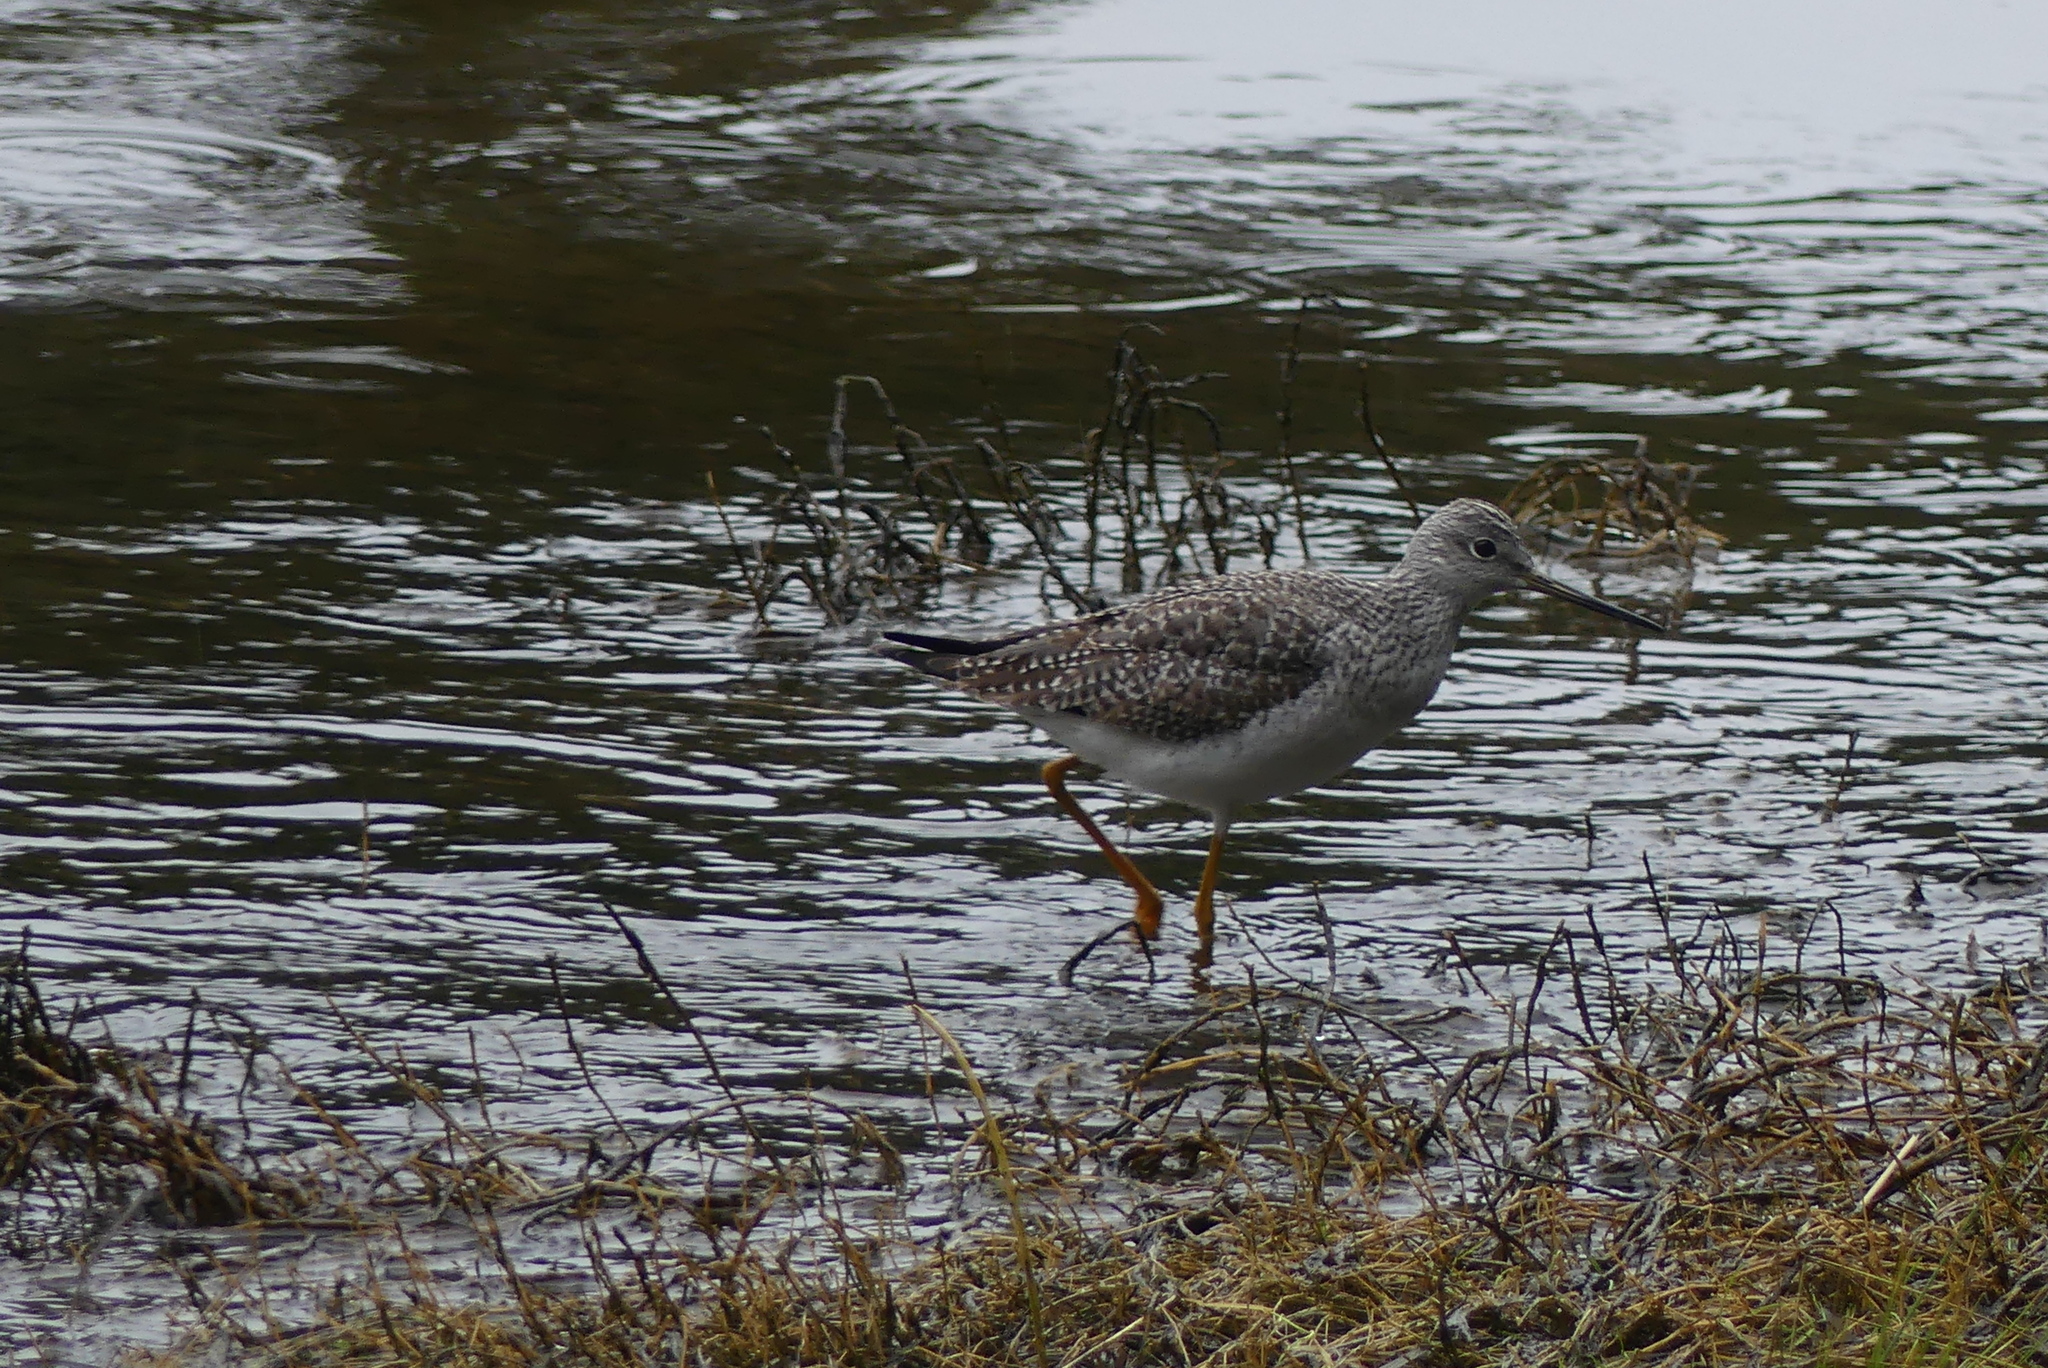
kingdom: Animalia
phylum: Chordata
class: Aves
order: Charadriiformes
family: Scolopacidae
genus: Tringa
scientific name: Tringa melanoleuca
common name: Greater yellowlegs
